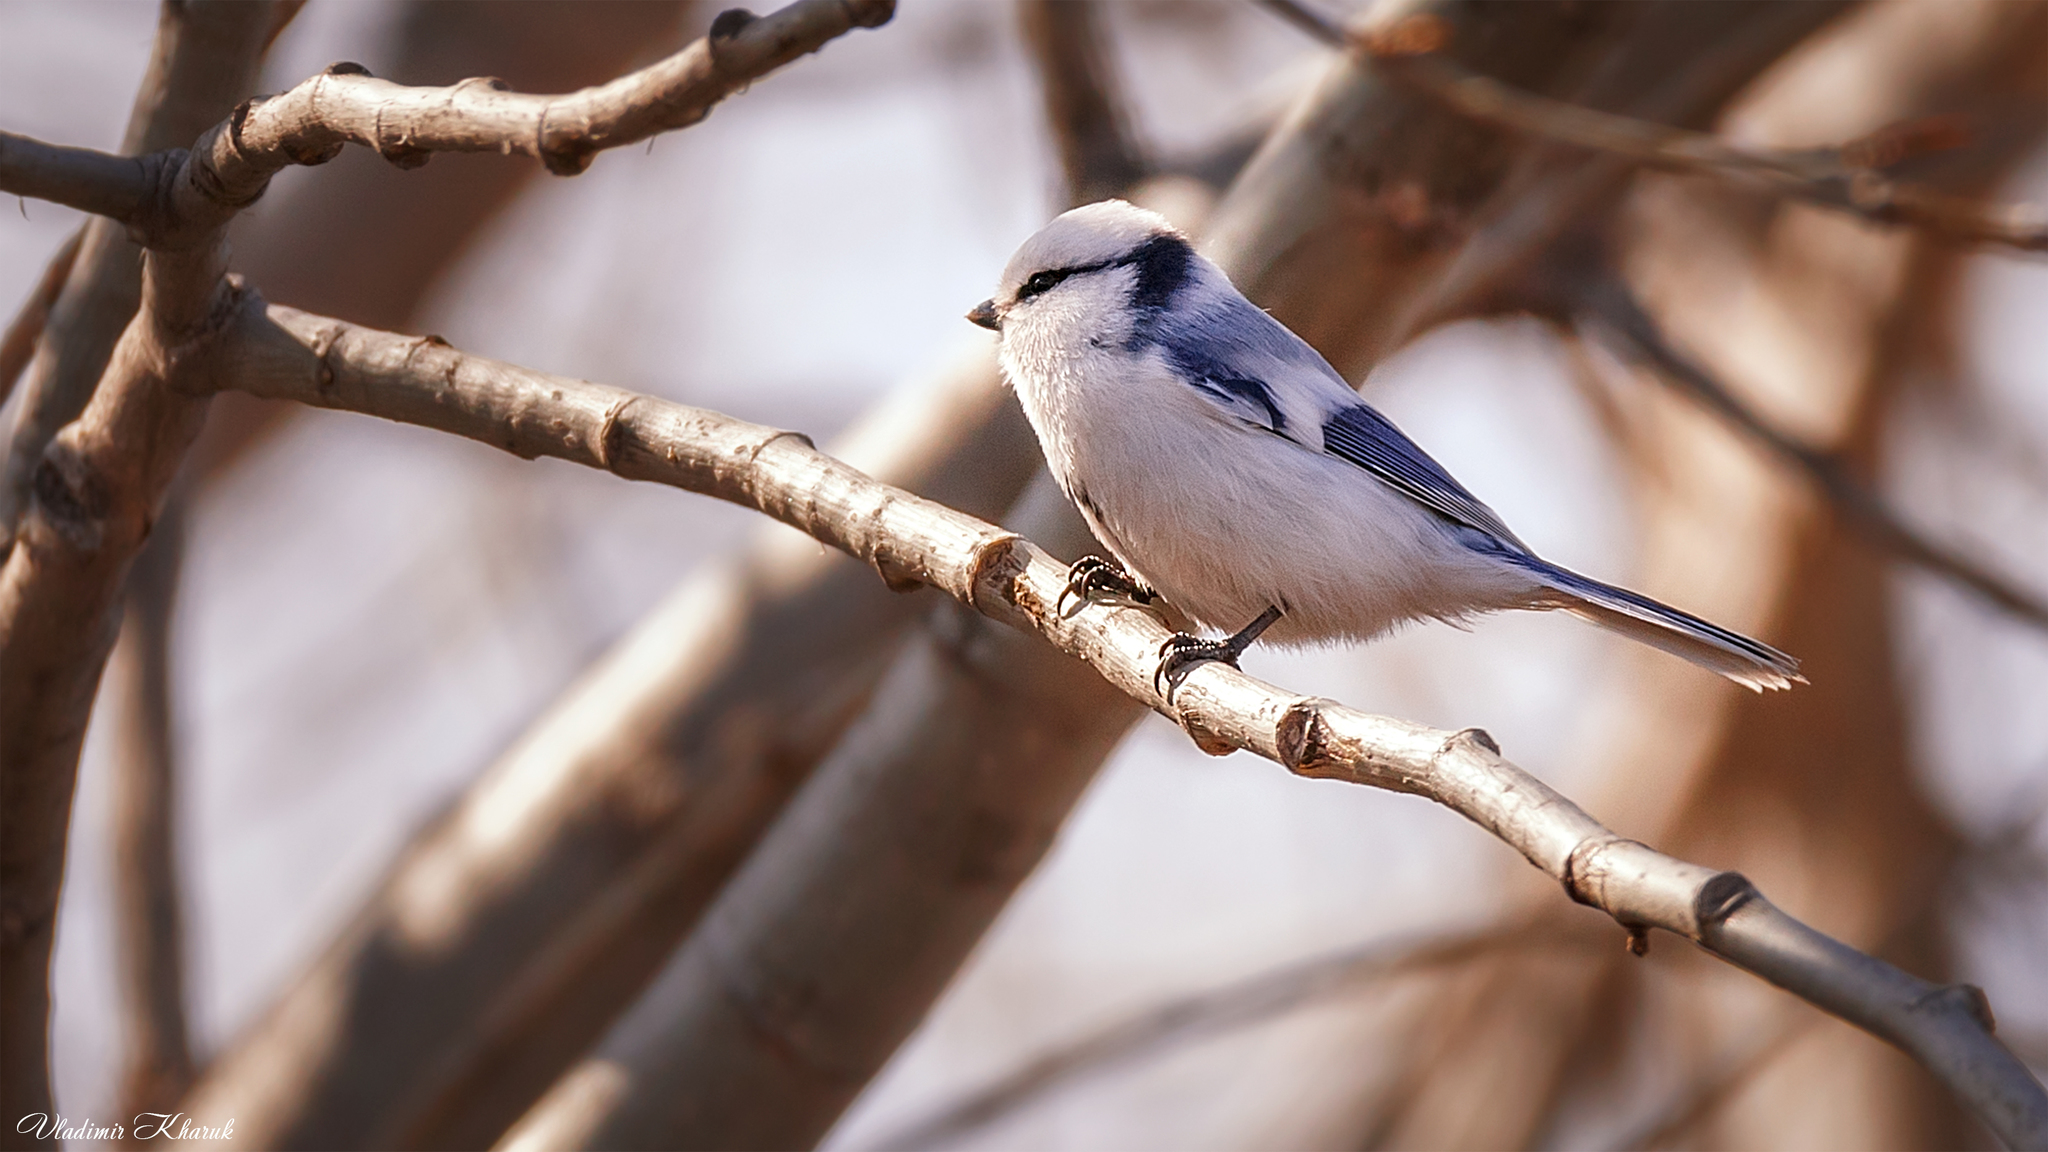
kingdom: Animalia
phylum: Chordata
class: Aves
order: Passeriformes
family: Paridae
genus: Cyanistes
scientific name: Cyanistes cyanus
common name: Azure tit
